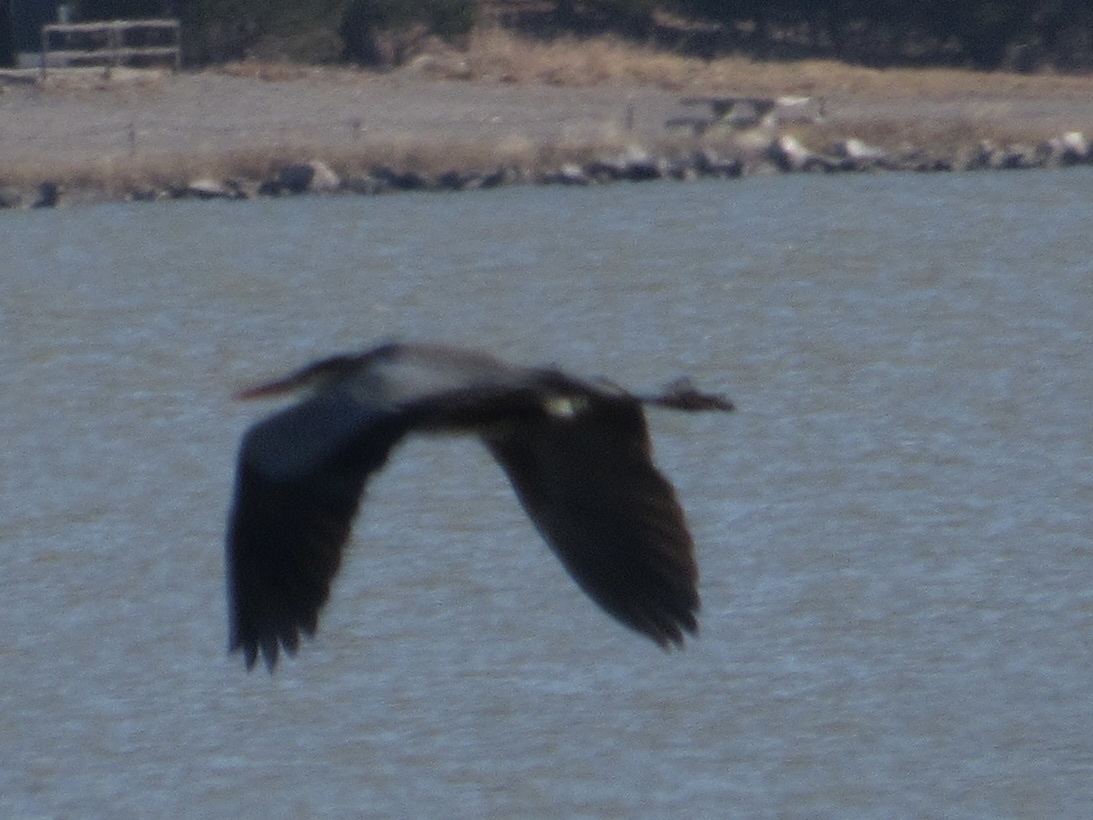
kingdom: Animalia
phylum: Chordata
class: Aves
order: Pelecaniformes
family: Ardeidae
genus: Ardea
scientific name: Ardea herodias
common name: Great blue heron
